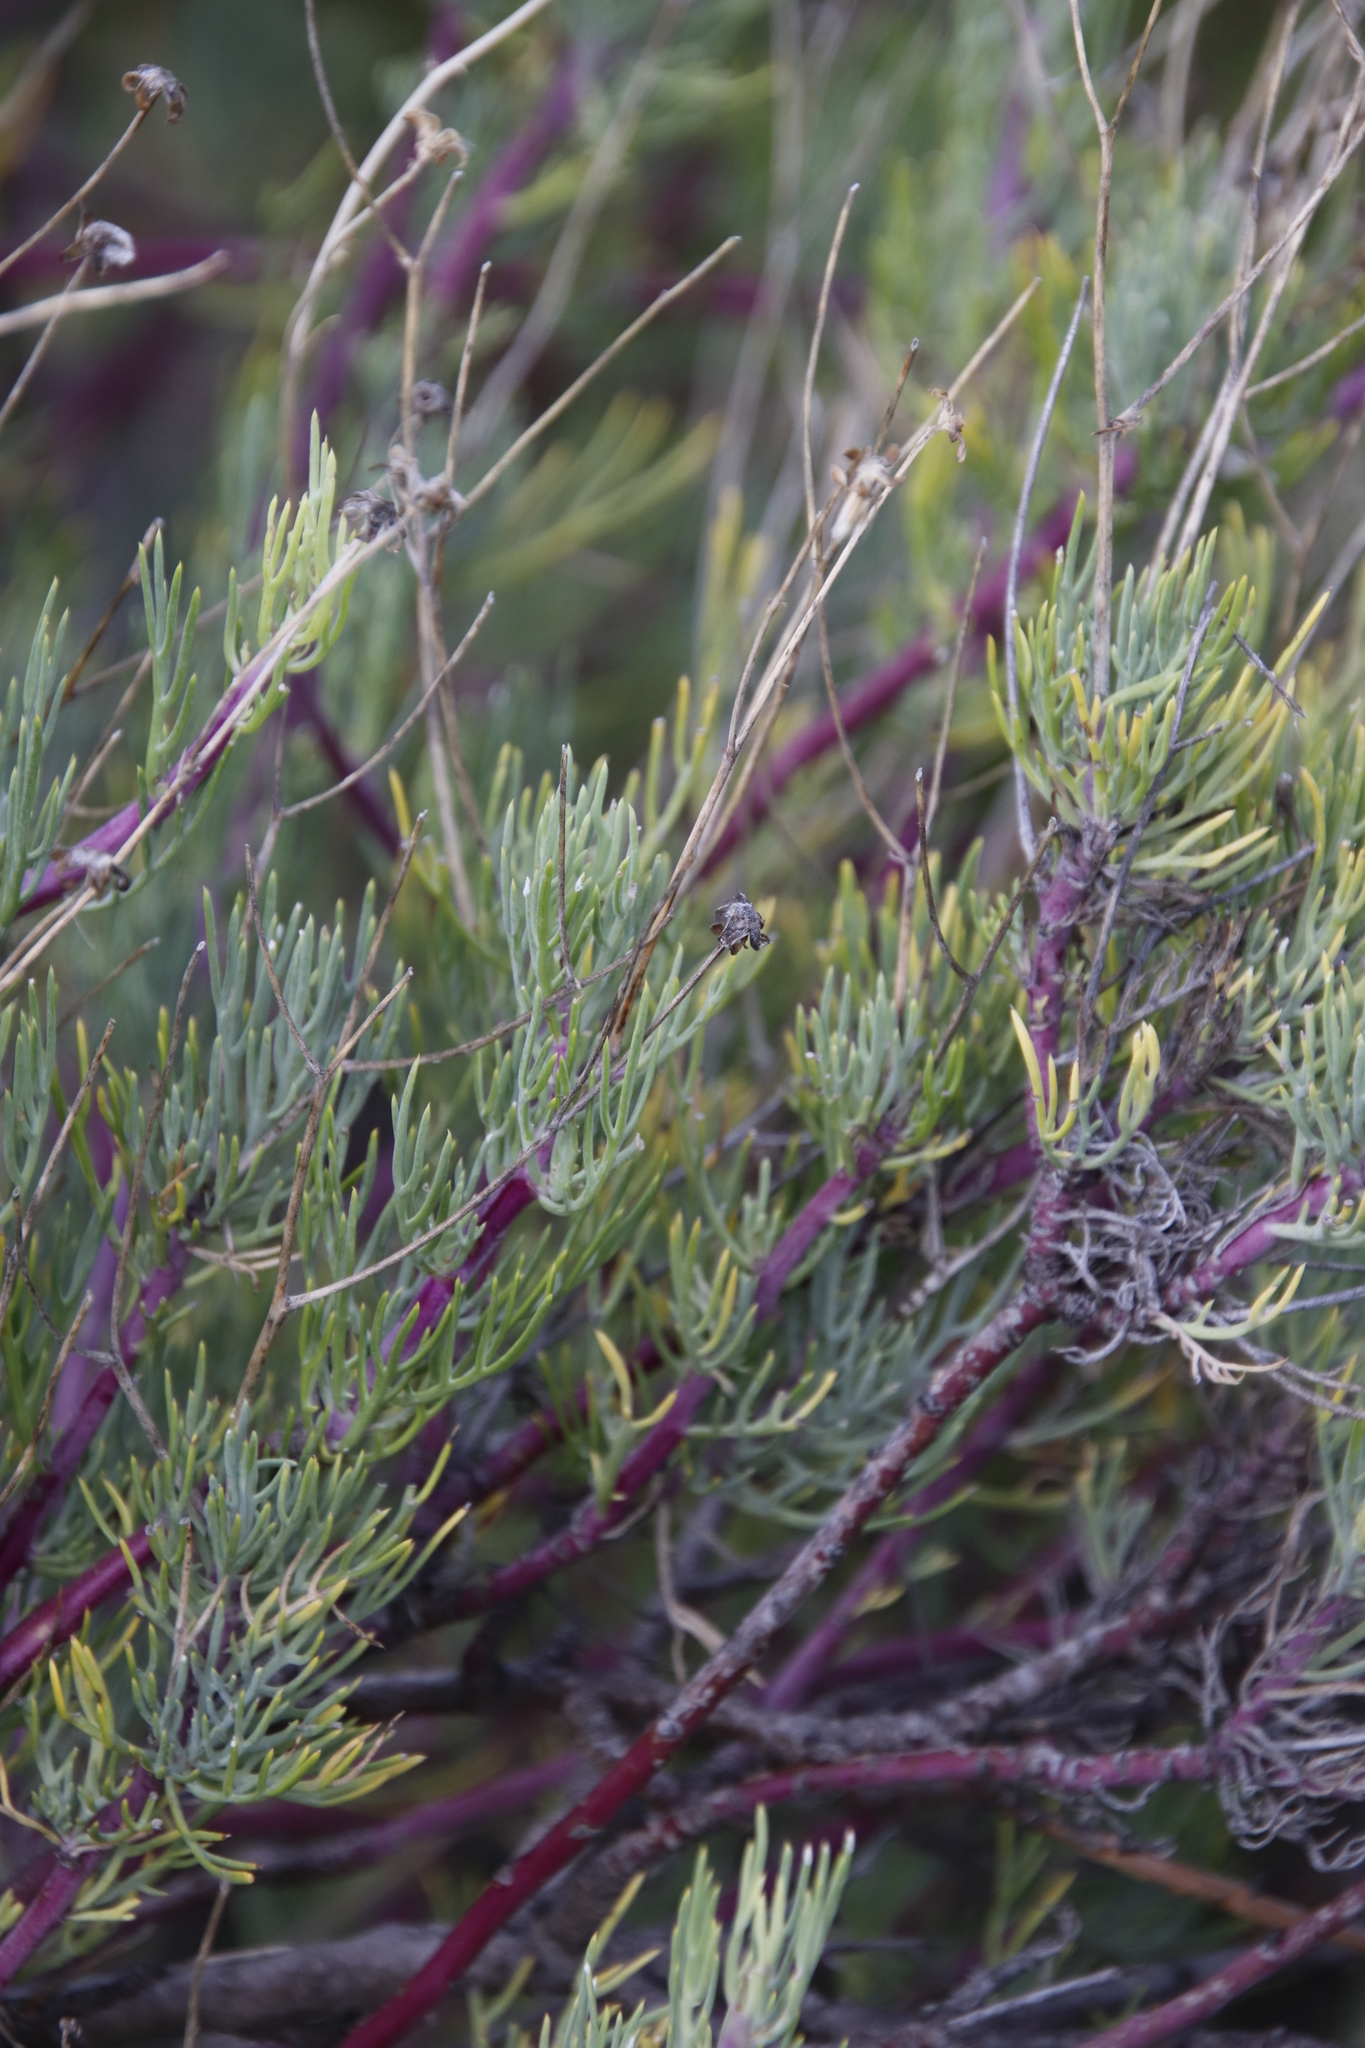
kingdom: Plantae
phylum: Tracheophyta
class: Magnoliopsida
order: Asterales
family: Asteraceae
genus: Othonna
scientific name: Othonna pavonia
